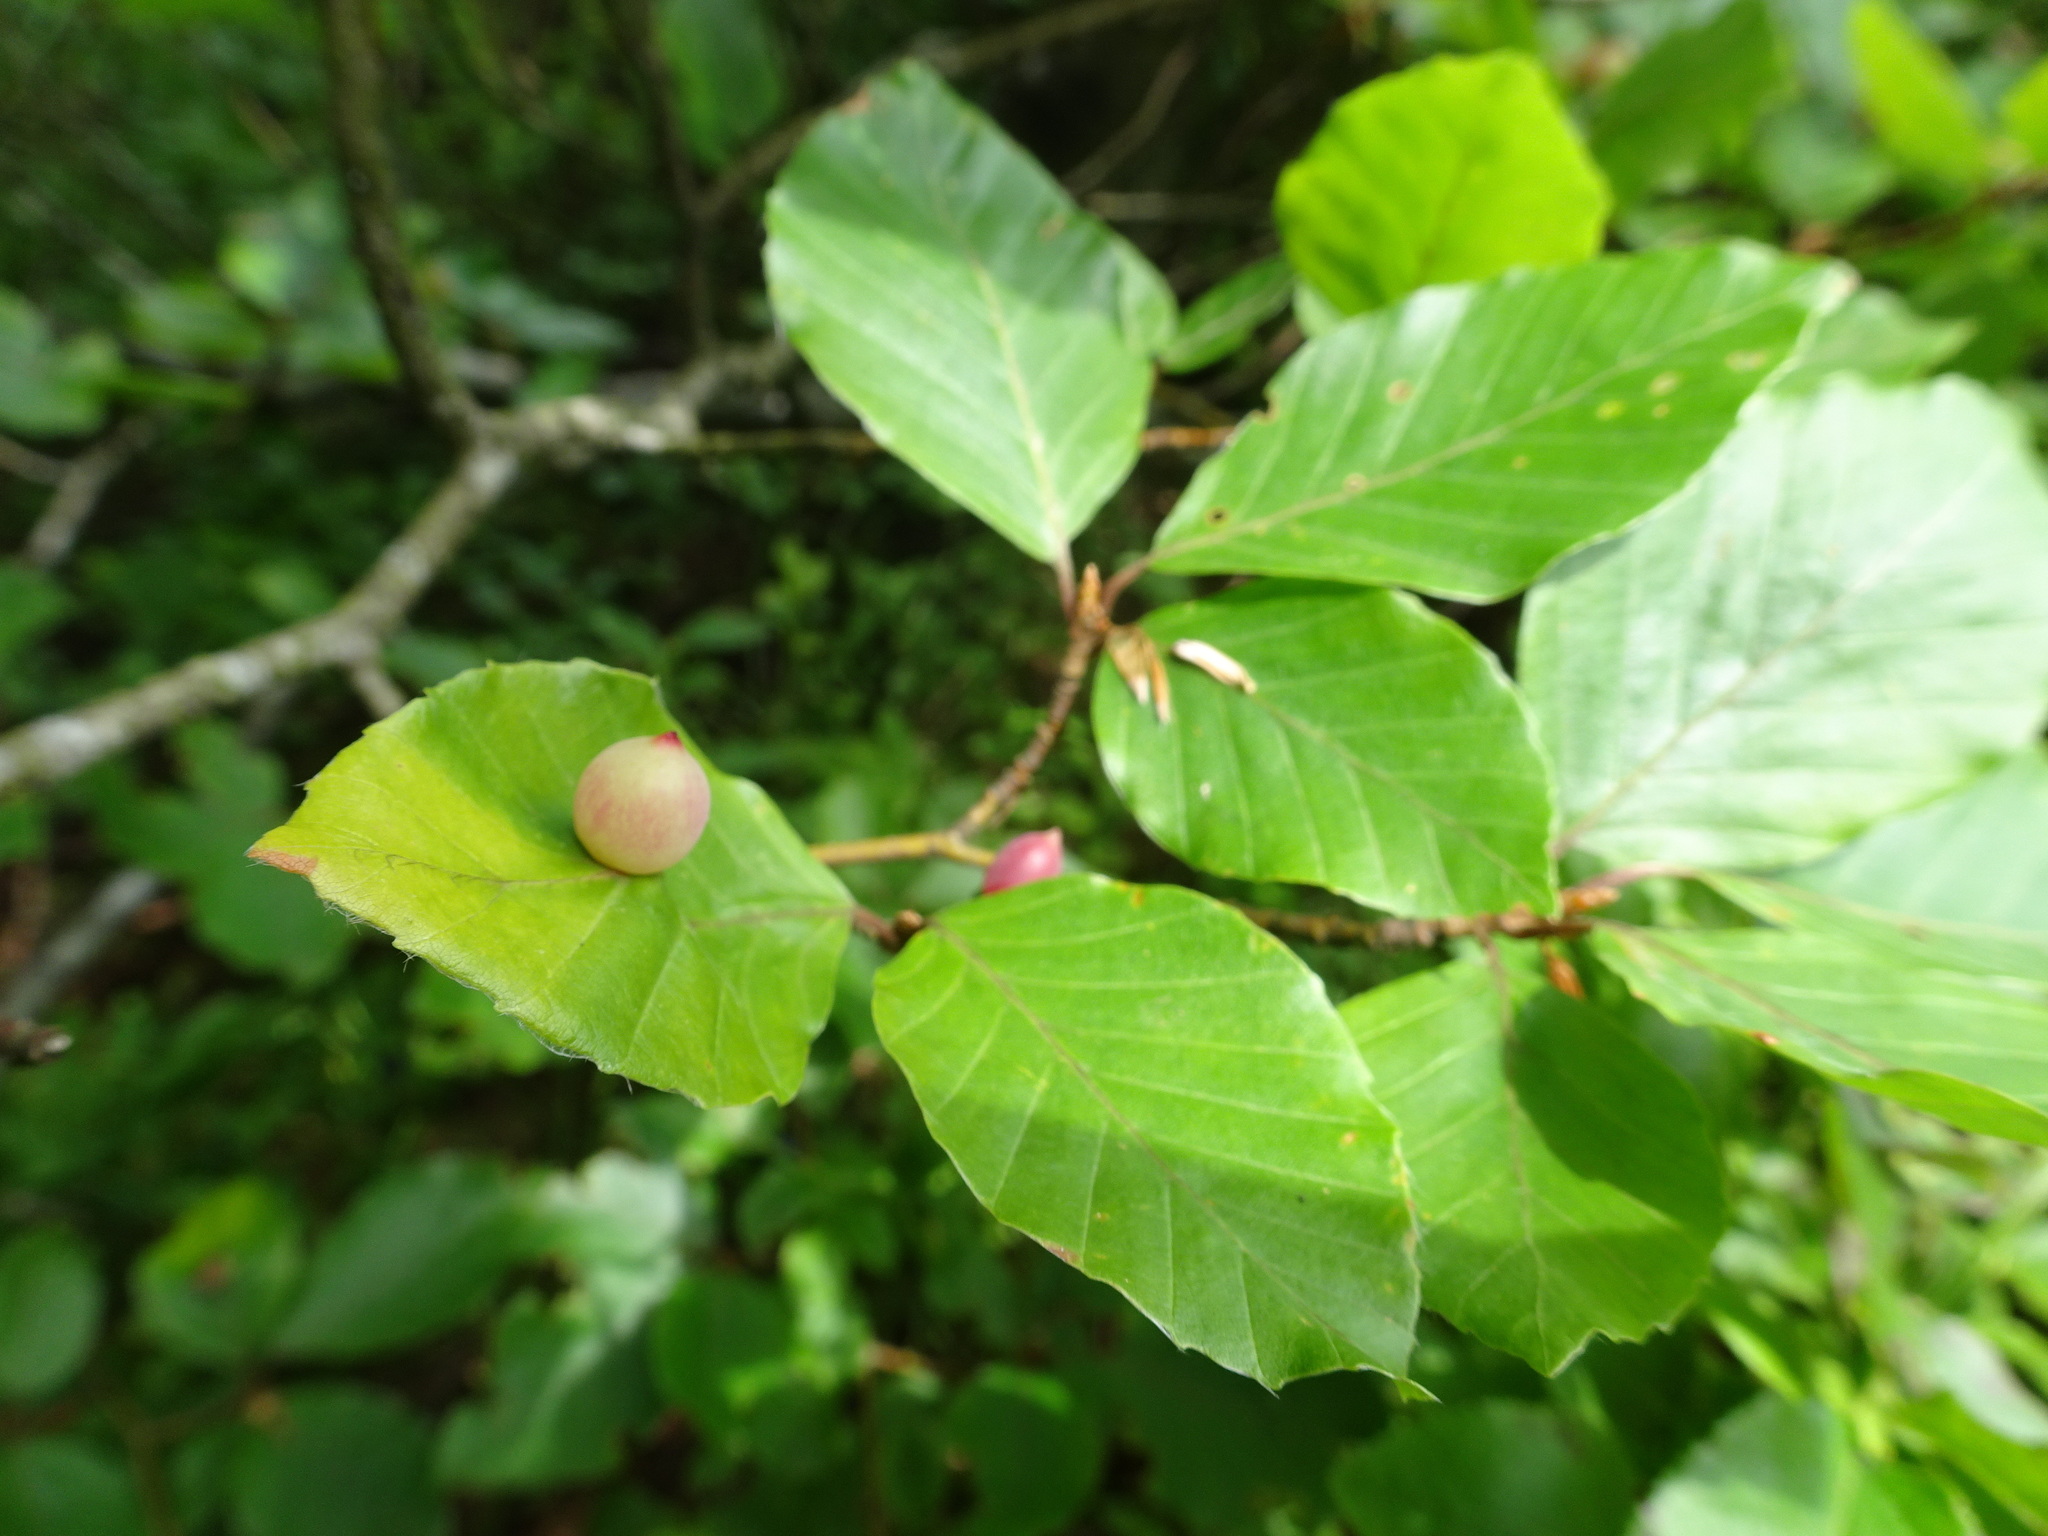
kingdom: Animalia
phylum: Arthropoda
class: Insecta
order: Diptera
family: Cecidomyiidae
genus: Mikiola
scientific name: Mikiola fagi
